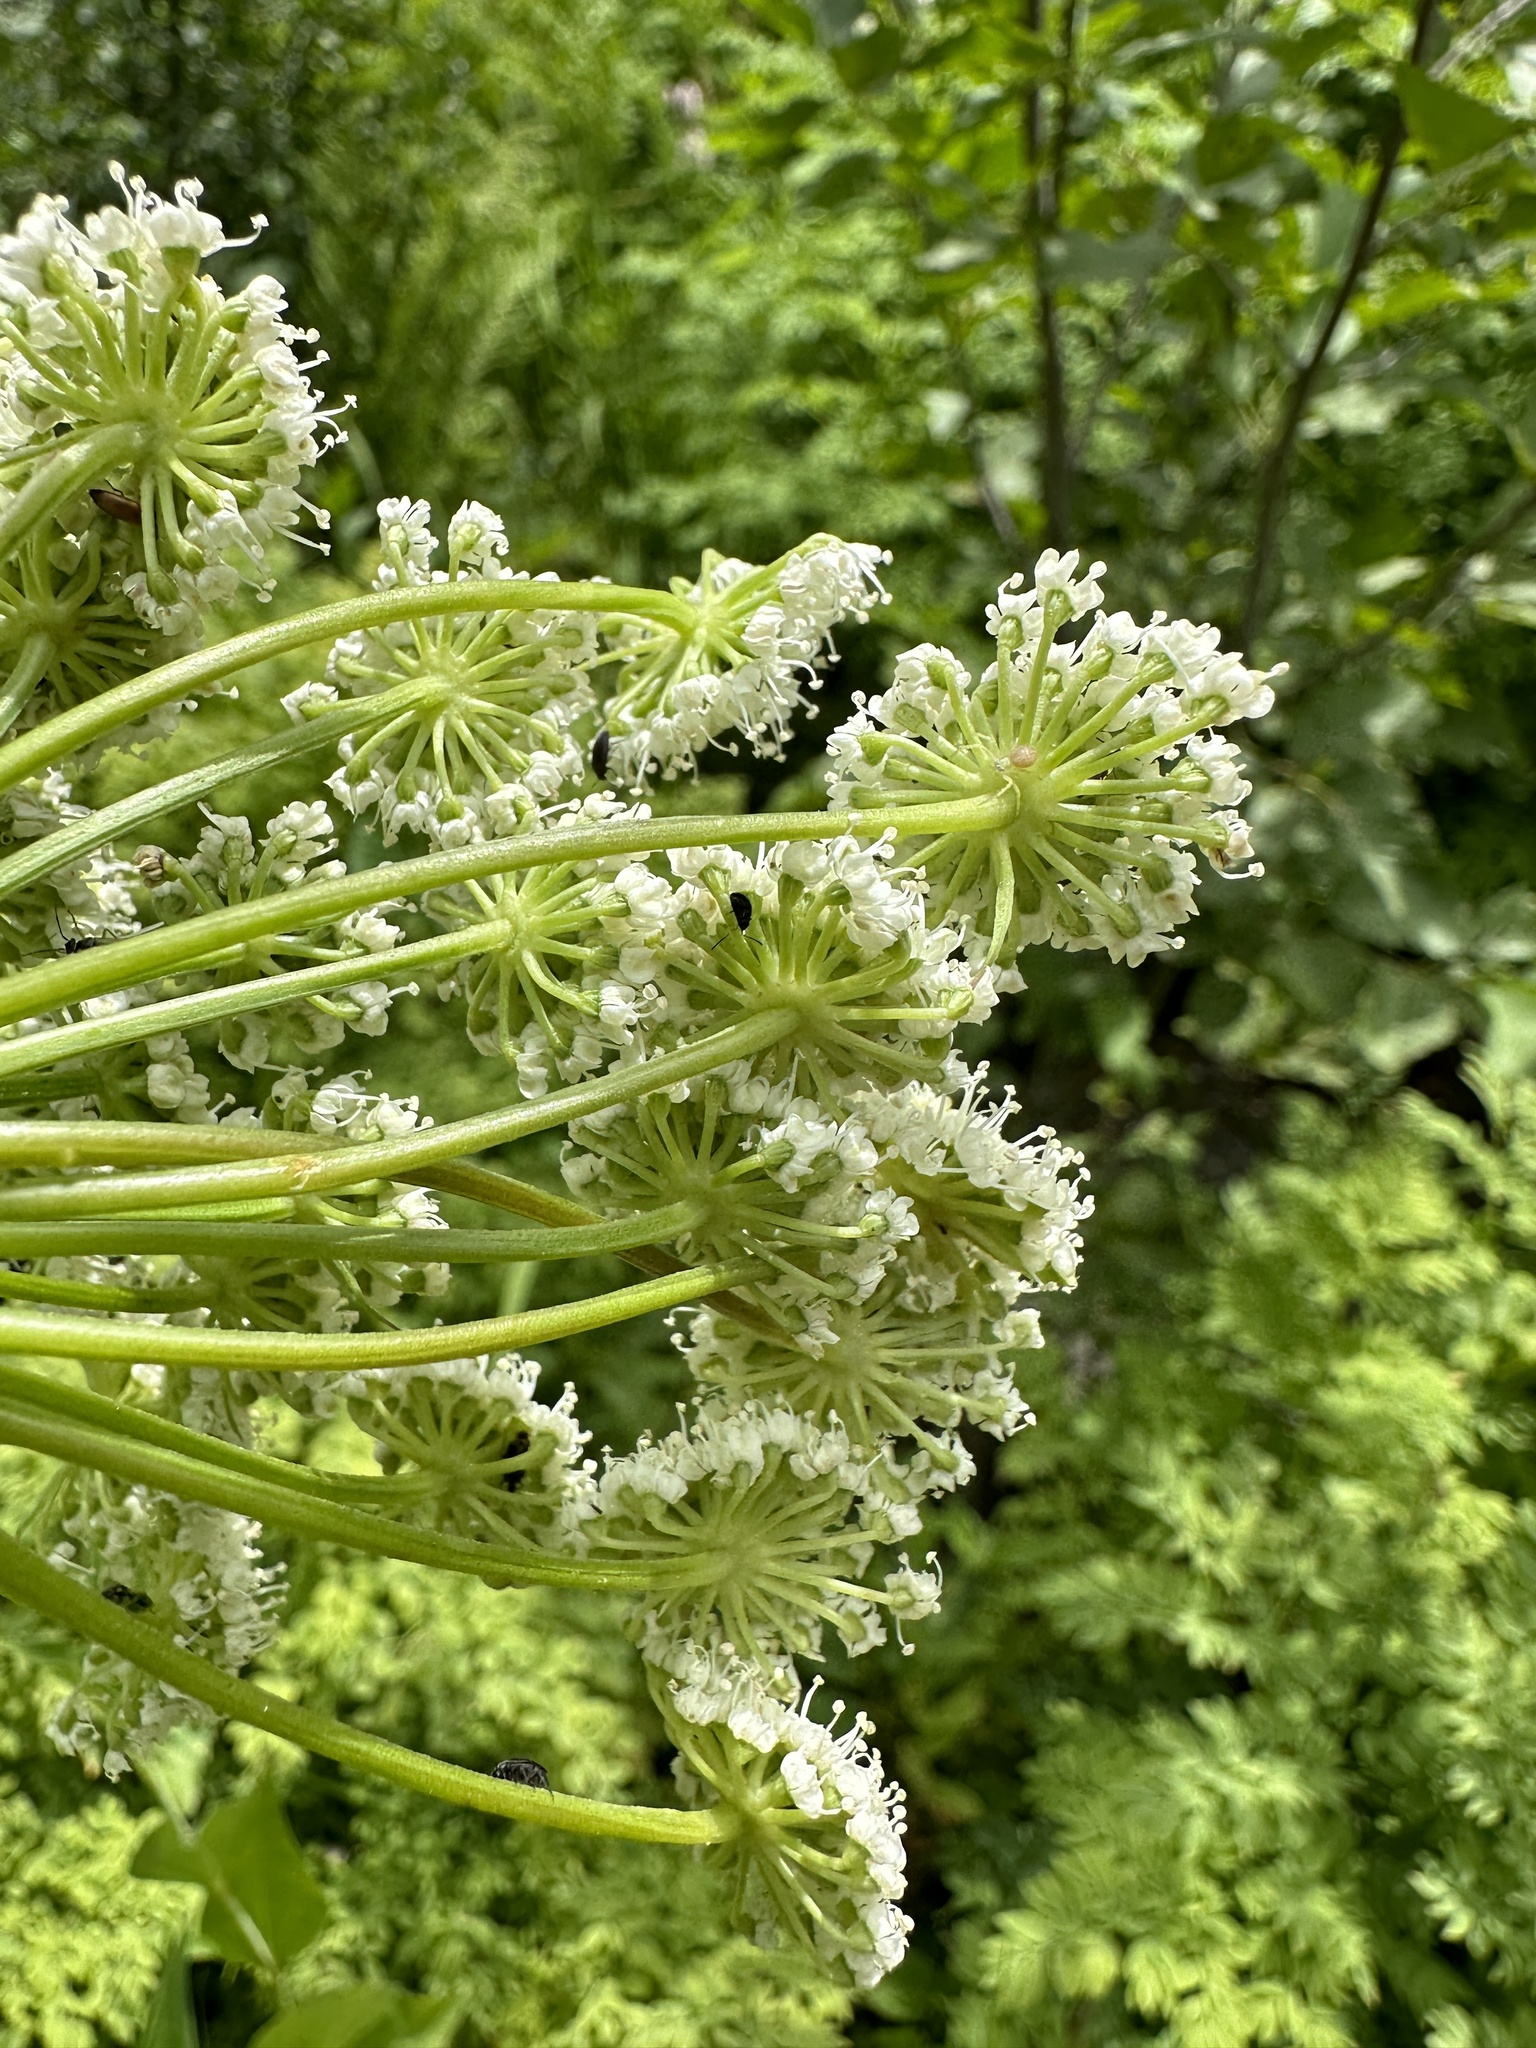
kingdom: Plantae
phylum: Tracheophyta
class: Magnoliopsida
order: Apiales
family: Apiaceae
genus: Angelica
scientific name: Angelica arguta
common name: Lyall's angelica
